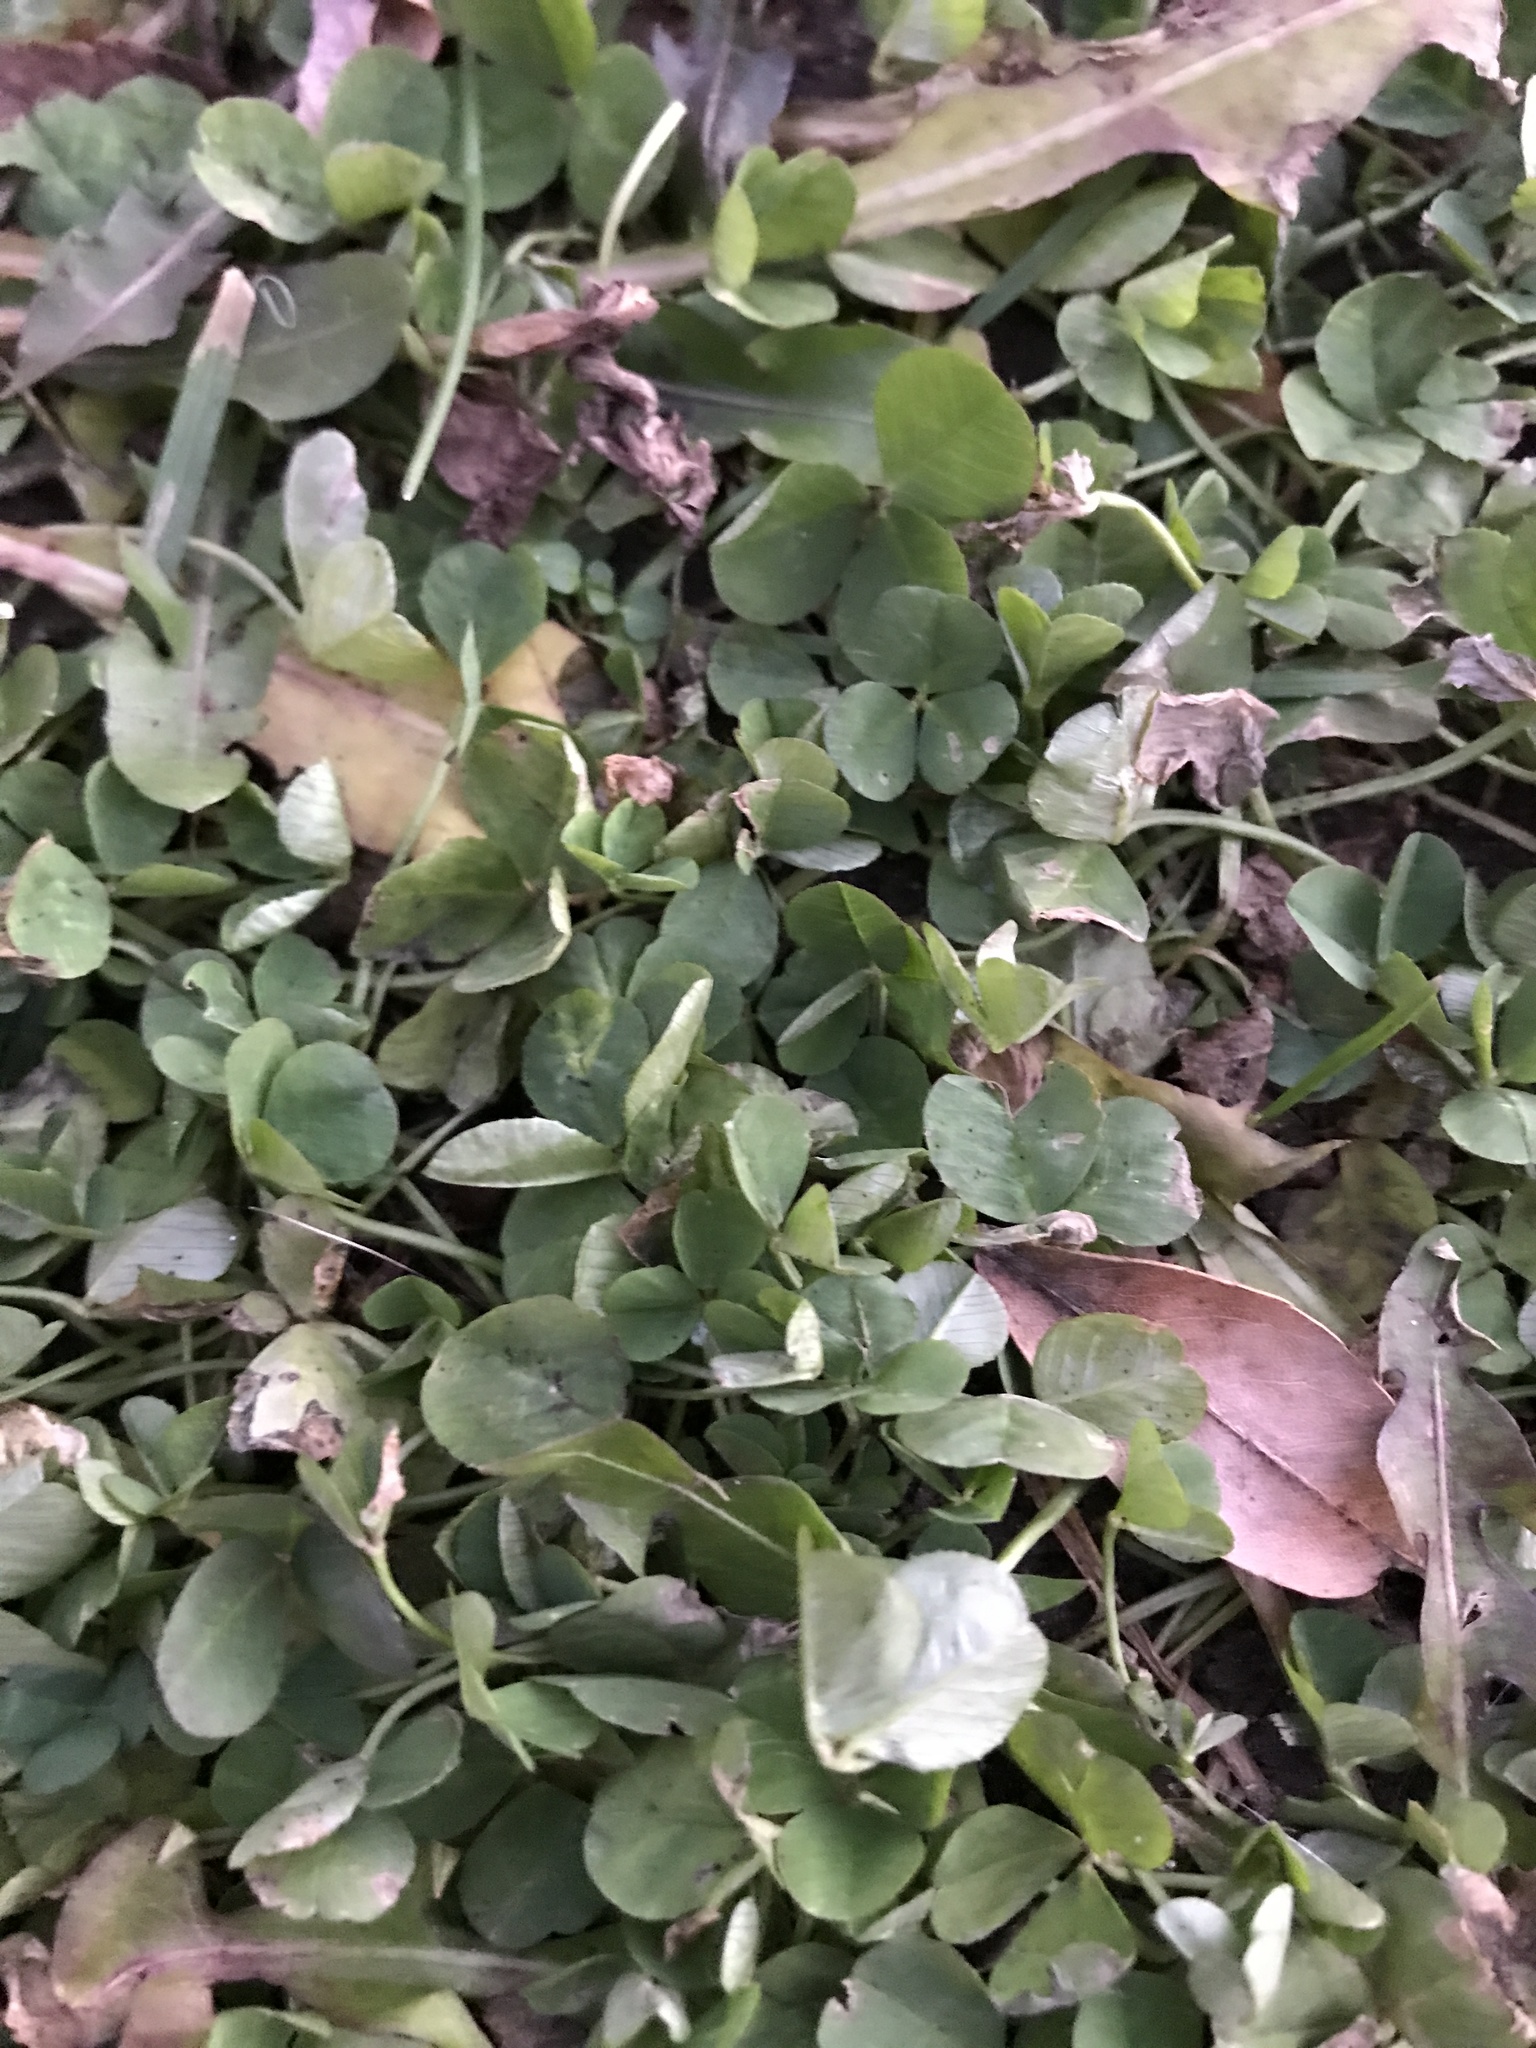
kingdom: Plantae
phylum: Tracheophyta
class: Magnoliopsida
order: Fabales
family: Fabaceae
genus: Trifolium
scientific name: Trifolium repens
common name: White clover
